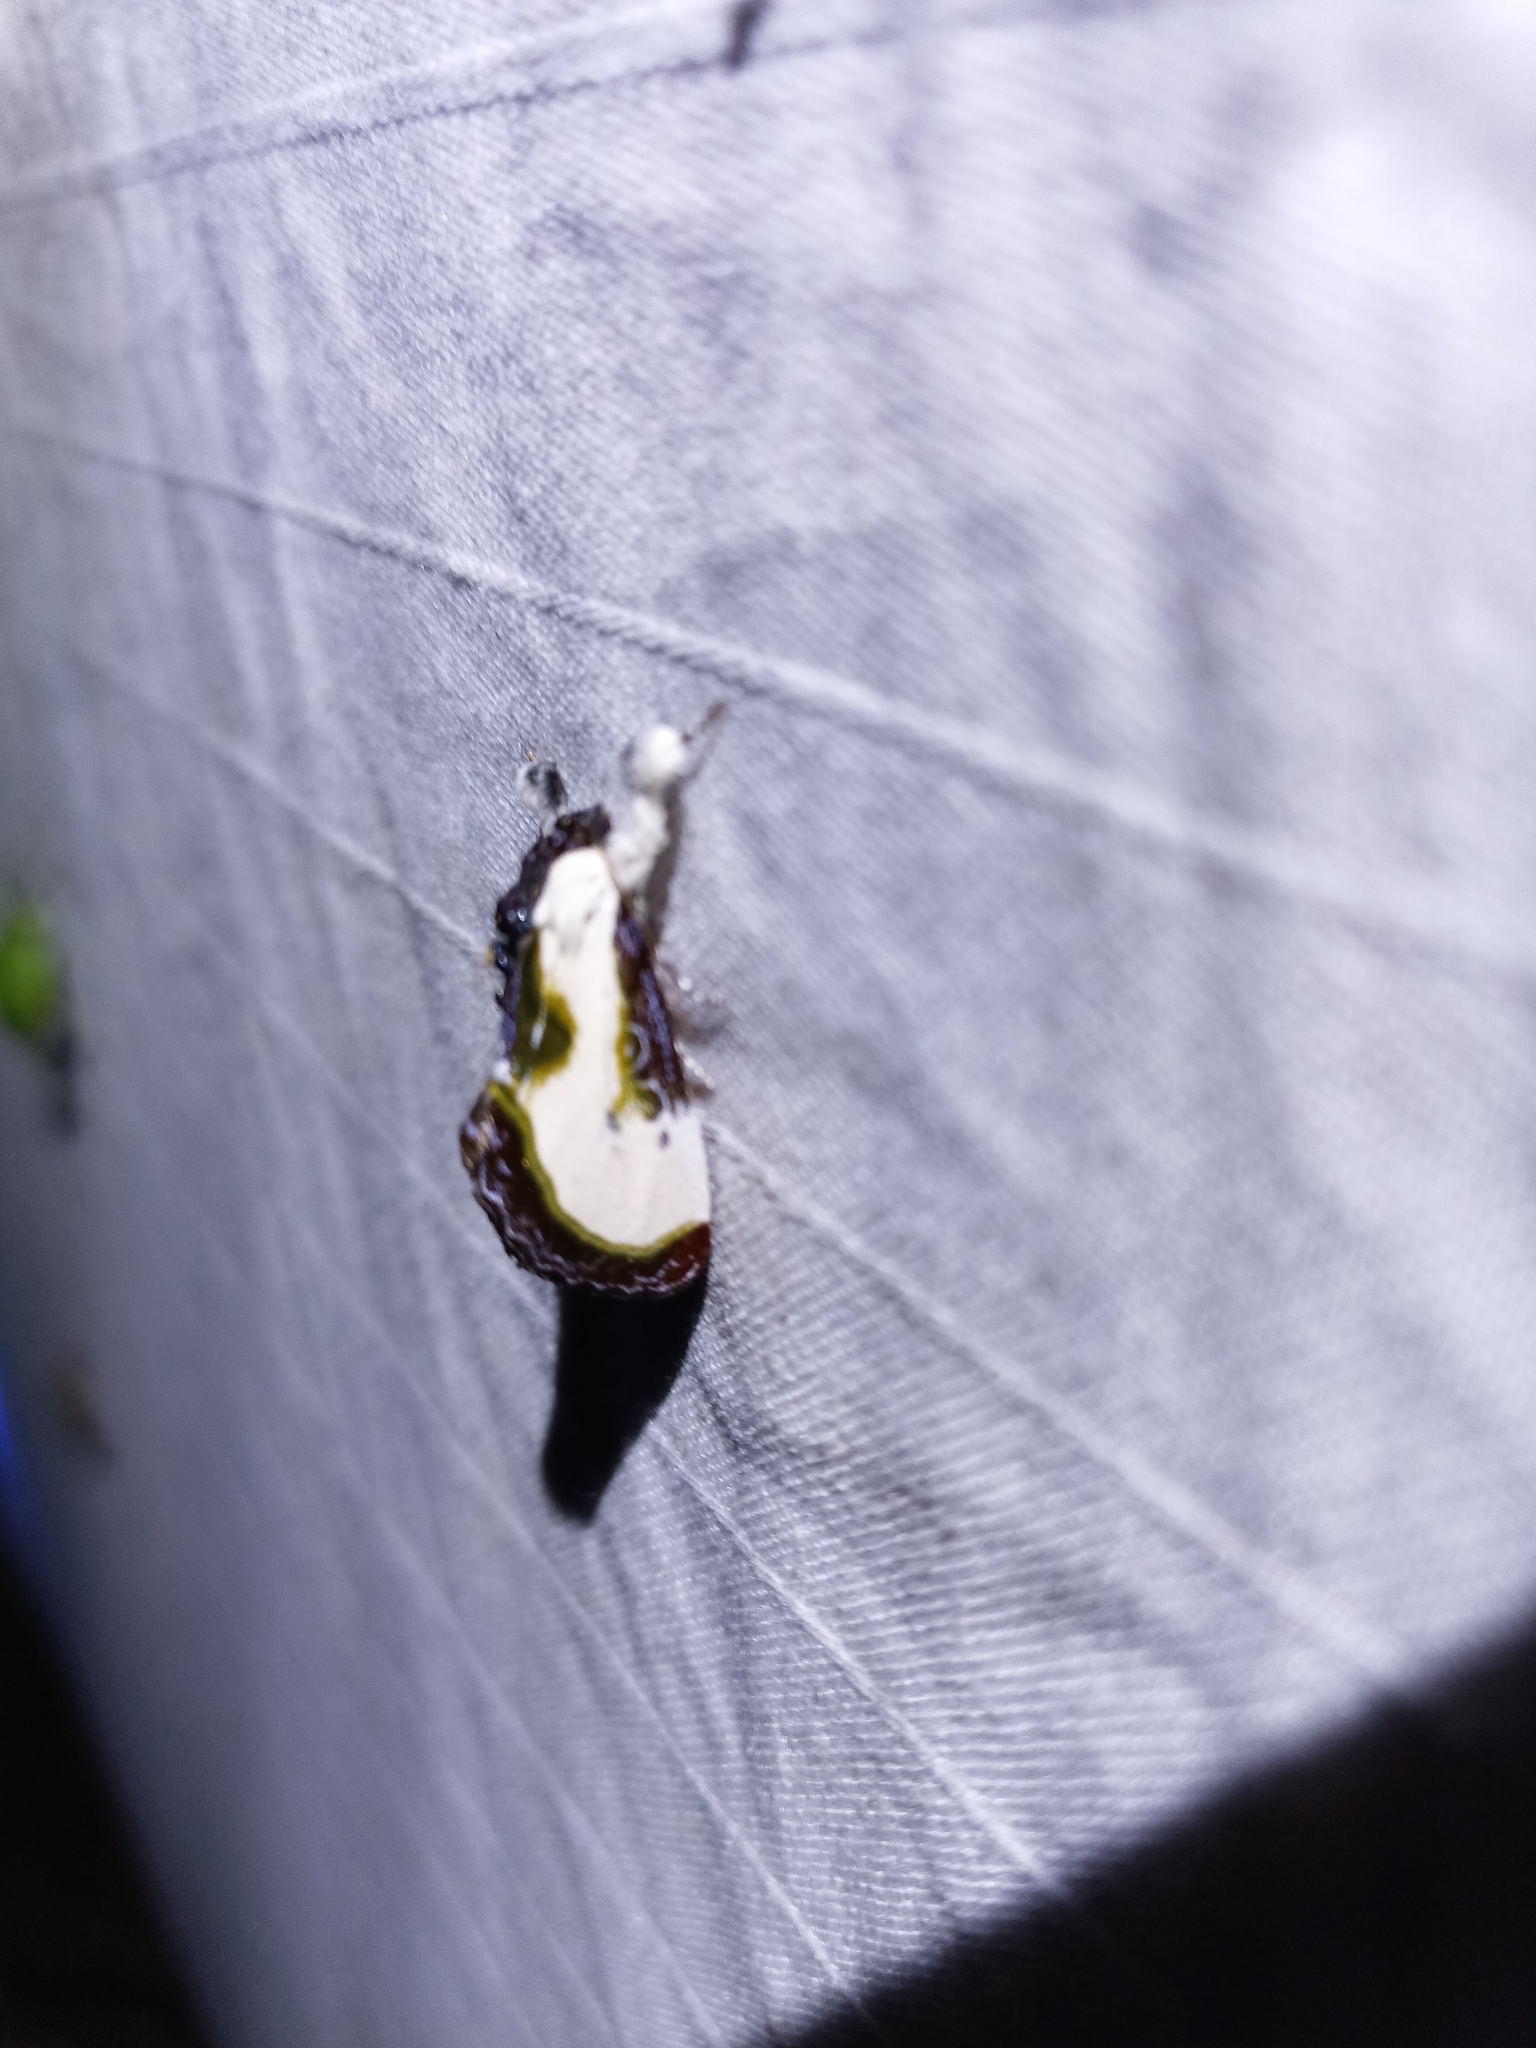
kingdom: Animalia
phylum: Arthropoda
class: Insecta
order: Lepidoptera
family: Noctuidae
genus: Eudryas
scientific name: Eudryas grata
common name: Beautiful wood-nymph
